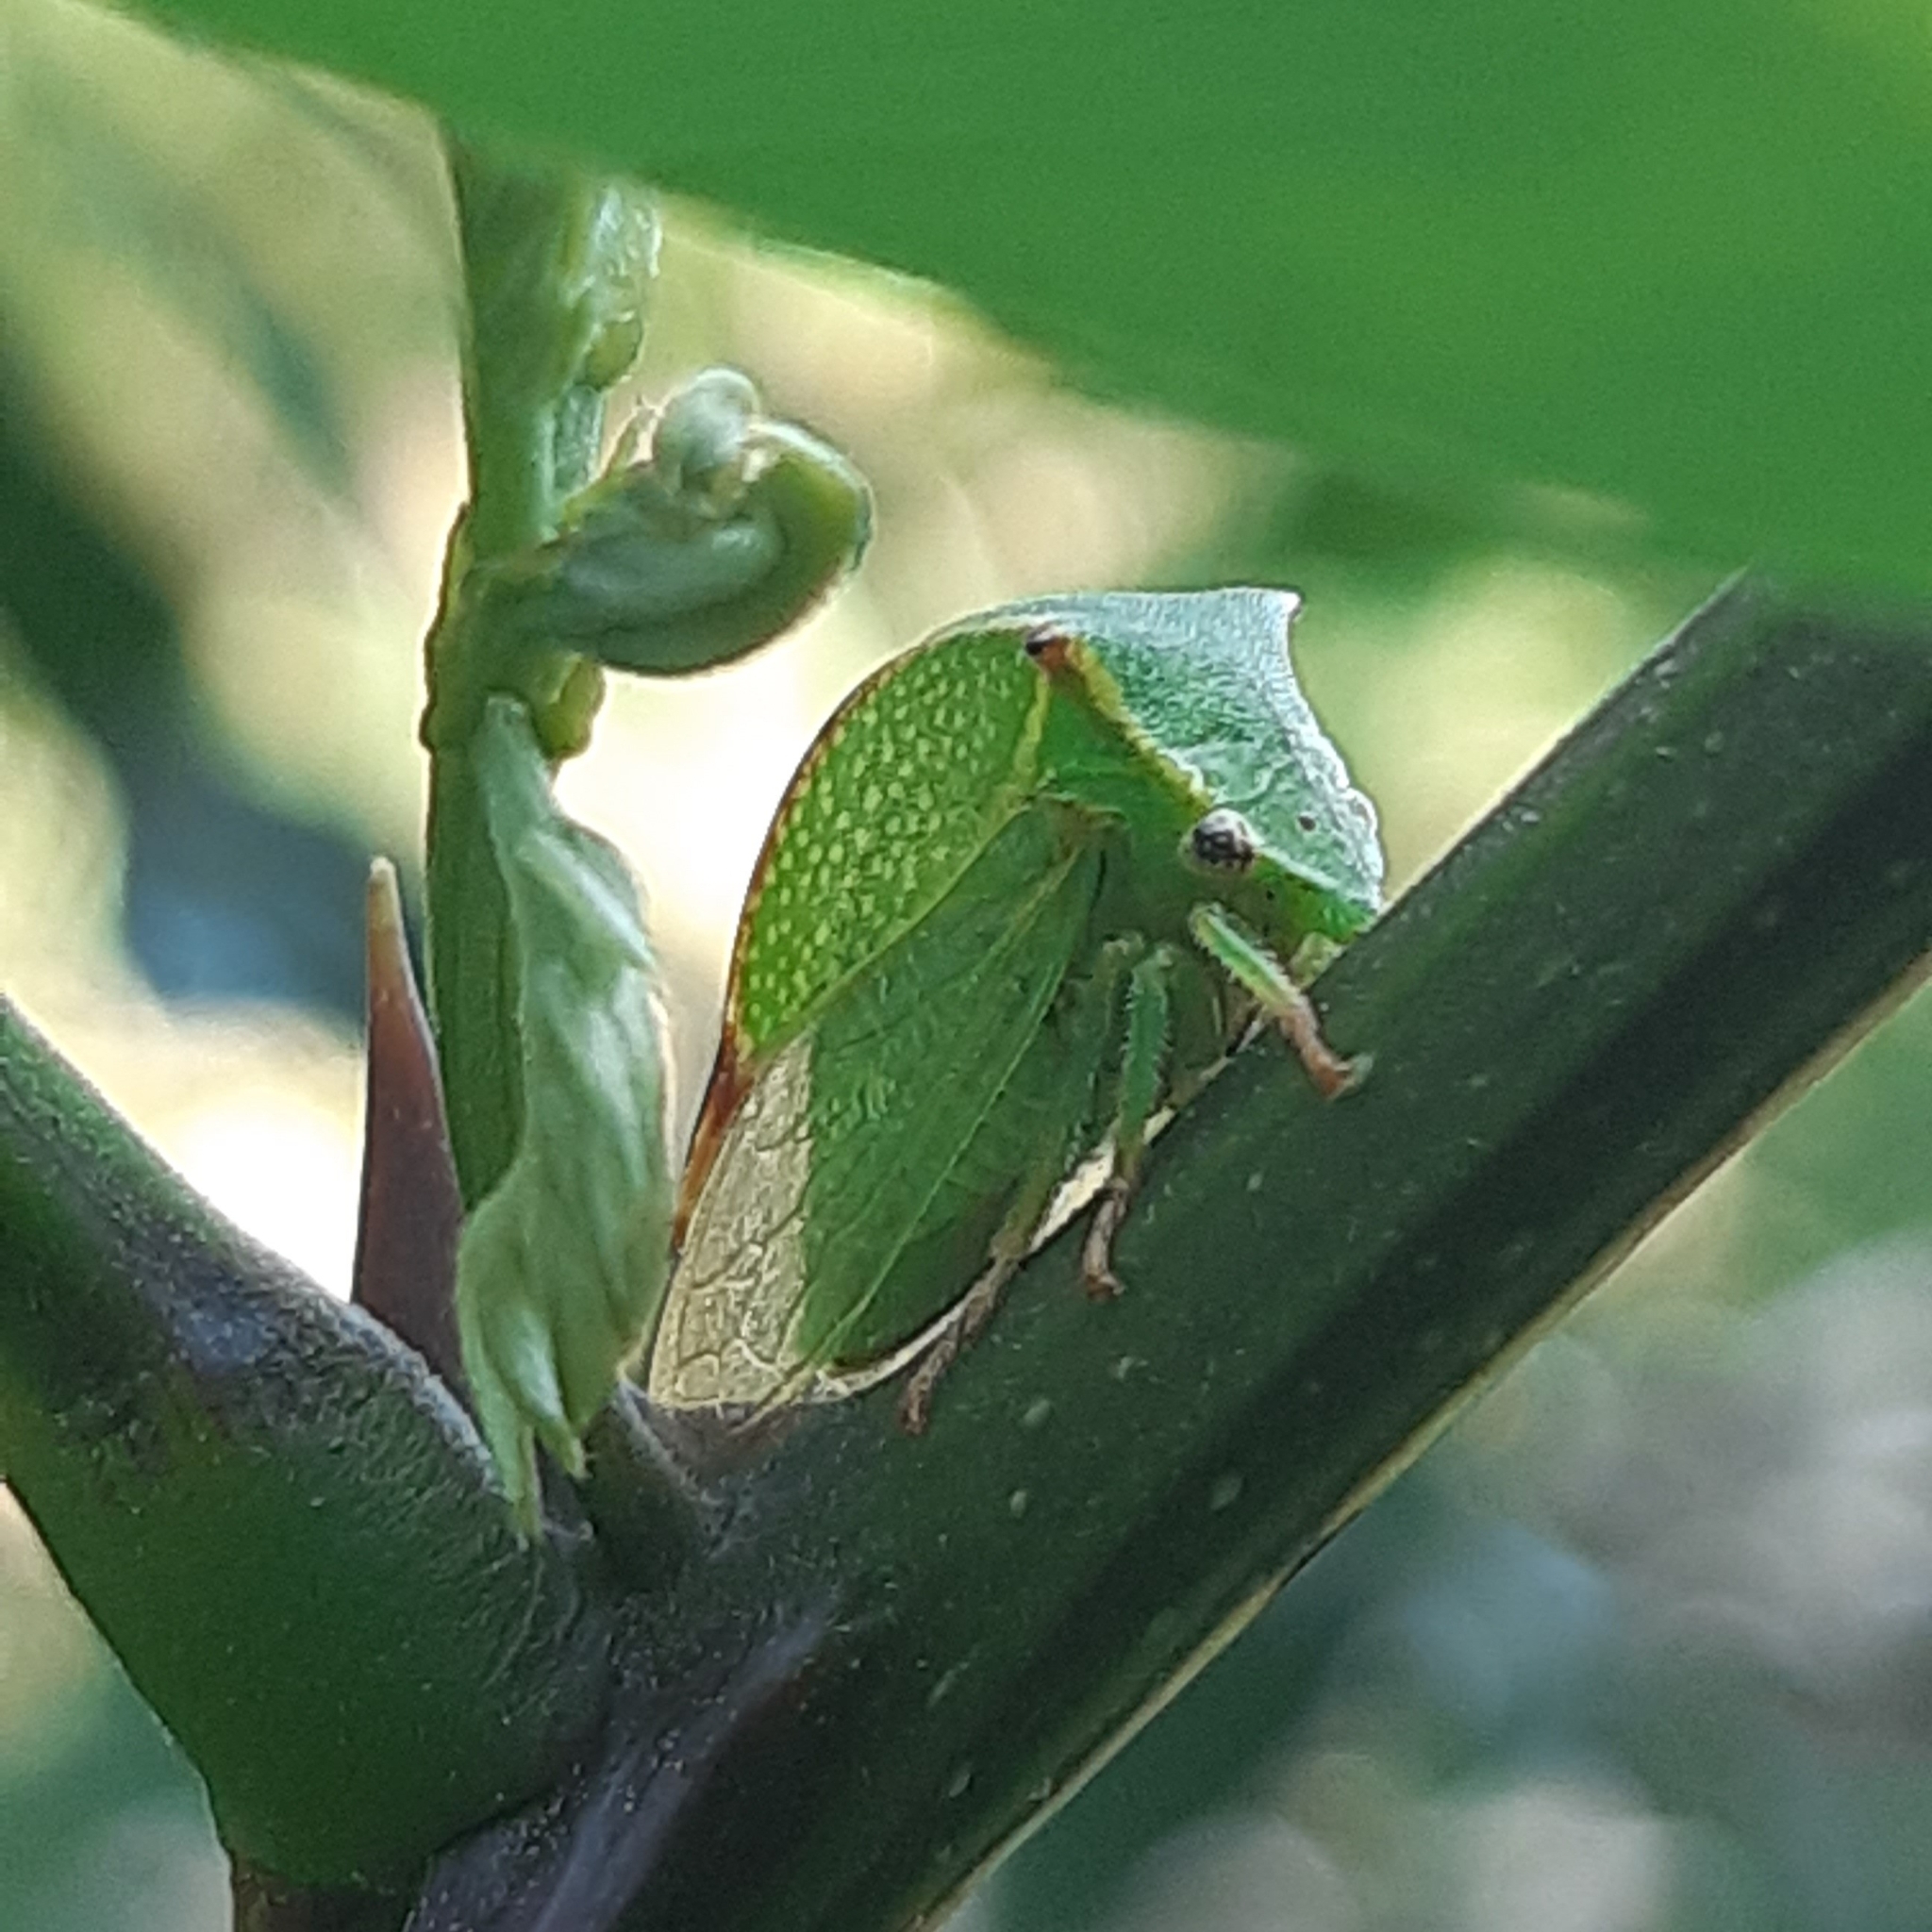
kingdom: Animalia
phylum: Arthropoda
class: Insecta
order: Hemiptera
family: Membracidae
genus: Stictocephala
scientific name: Stictocephala bisonia
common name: American buffalo treehopper
